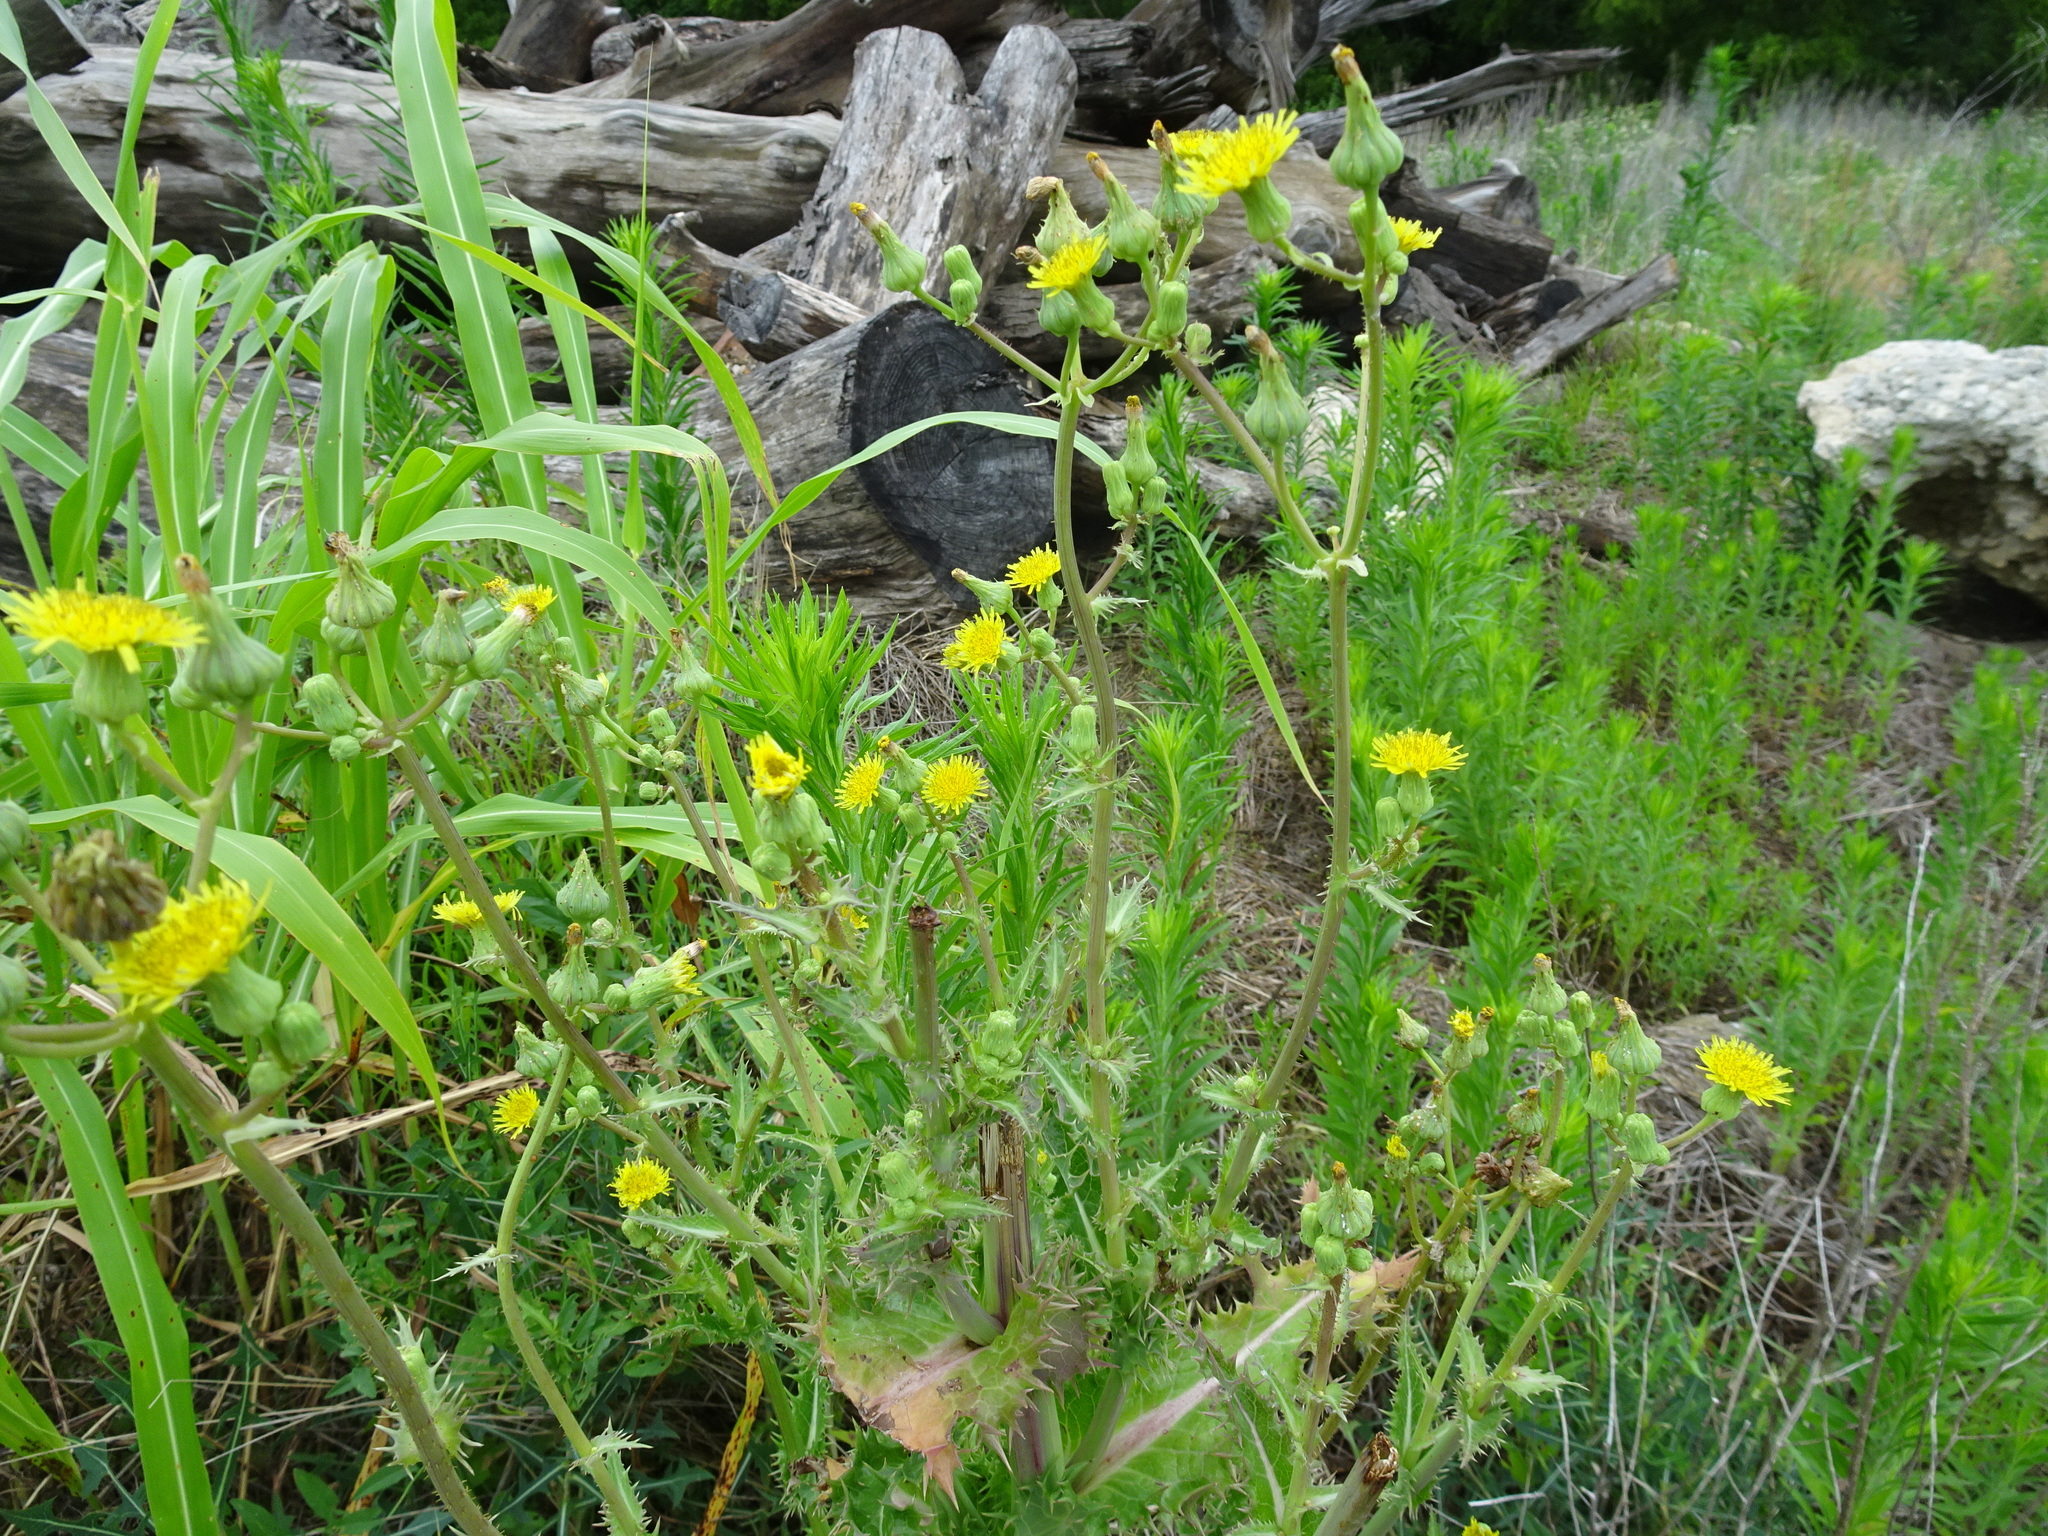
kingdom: Plantae
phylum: Tracheophyta
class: Magnoliopsida
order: Asterales
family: Asteraceae
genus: Sonchus
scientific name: Sonchus asper
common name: Prickly sow-thistle
